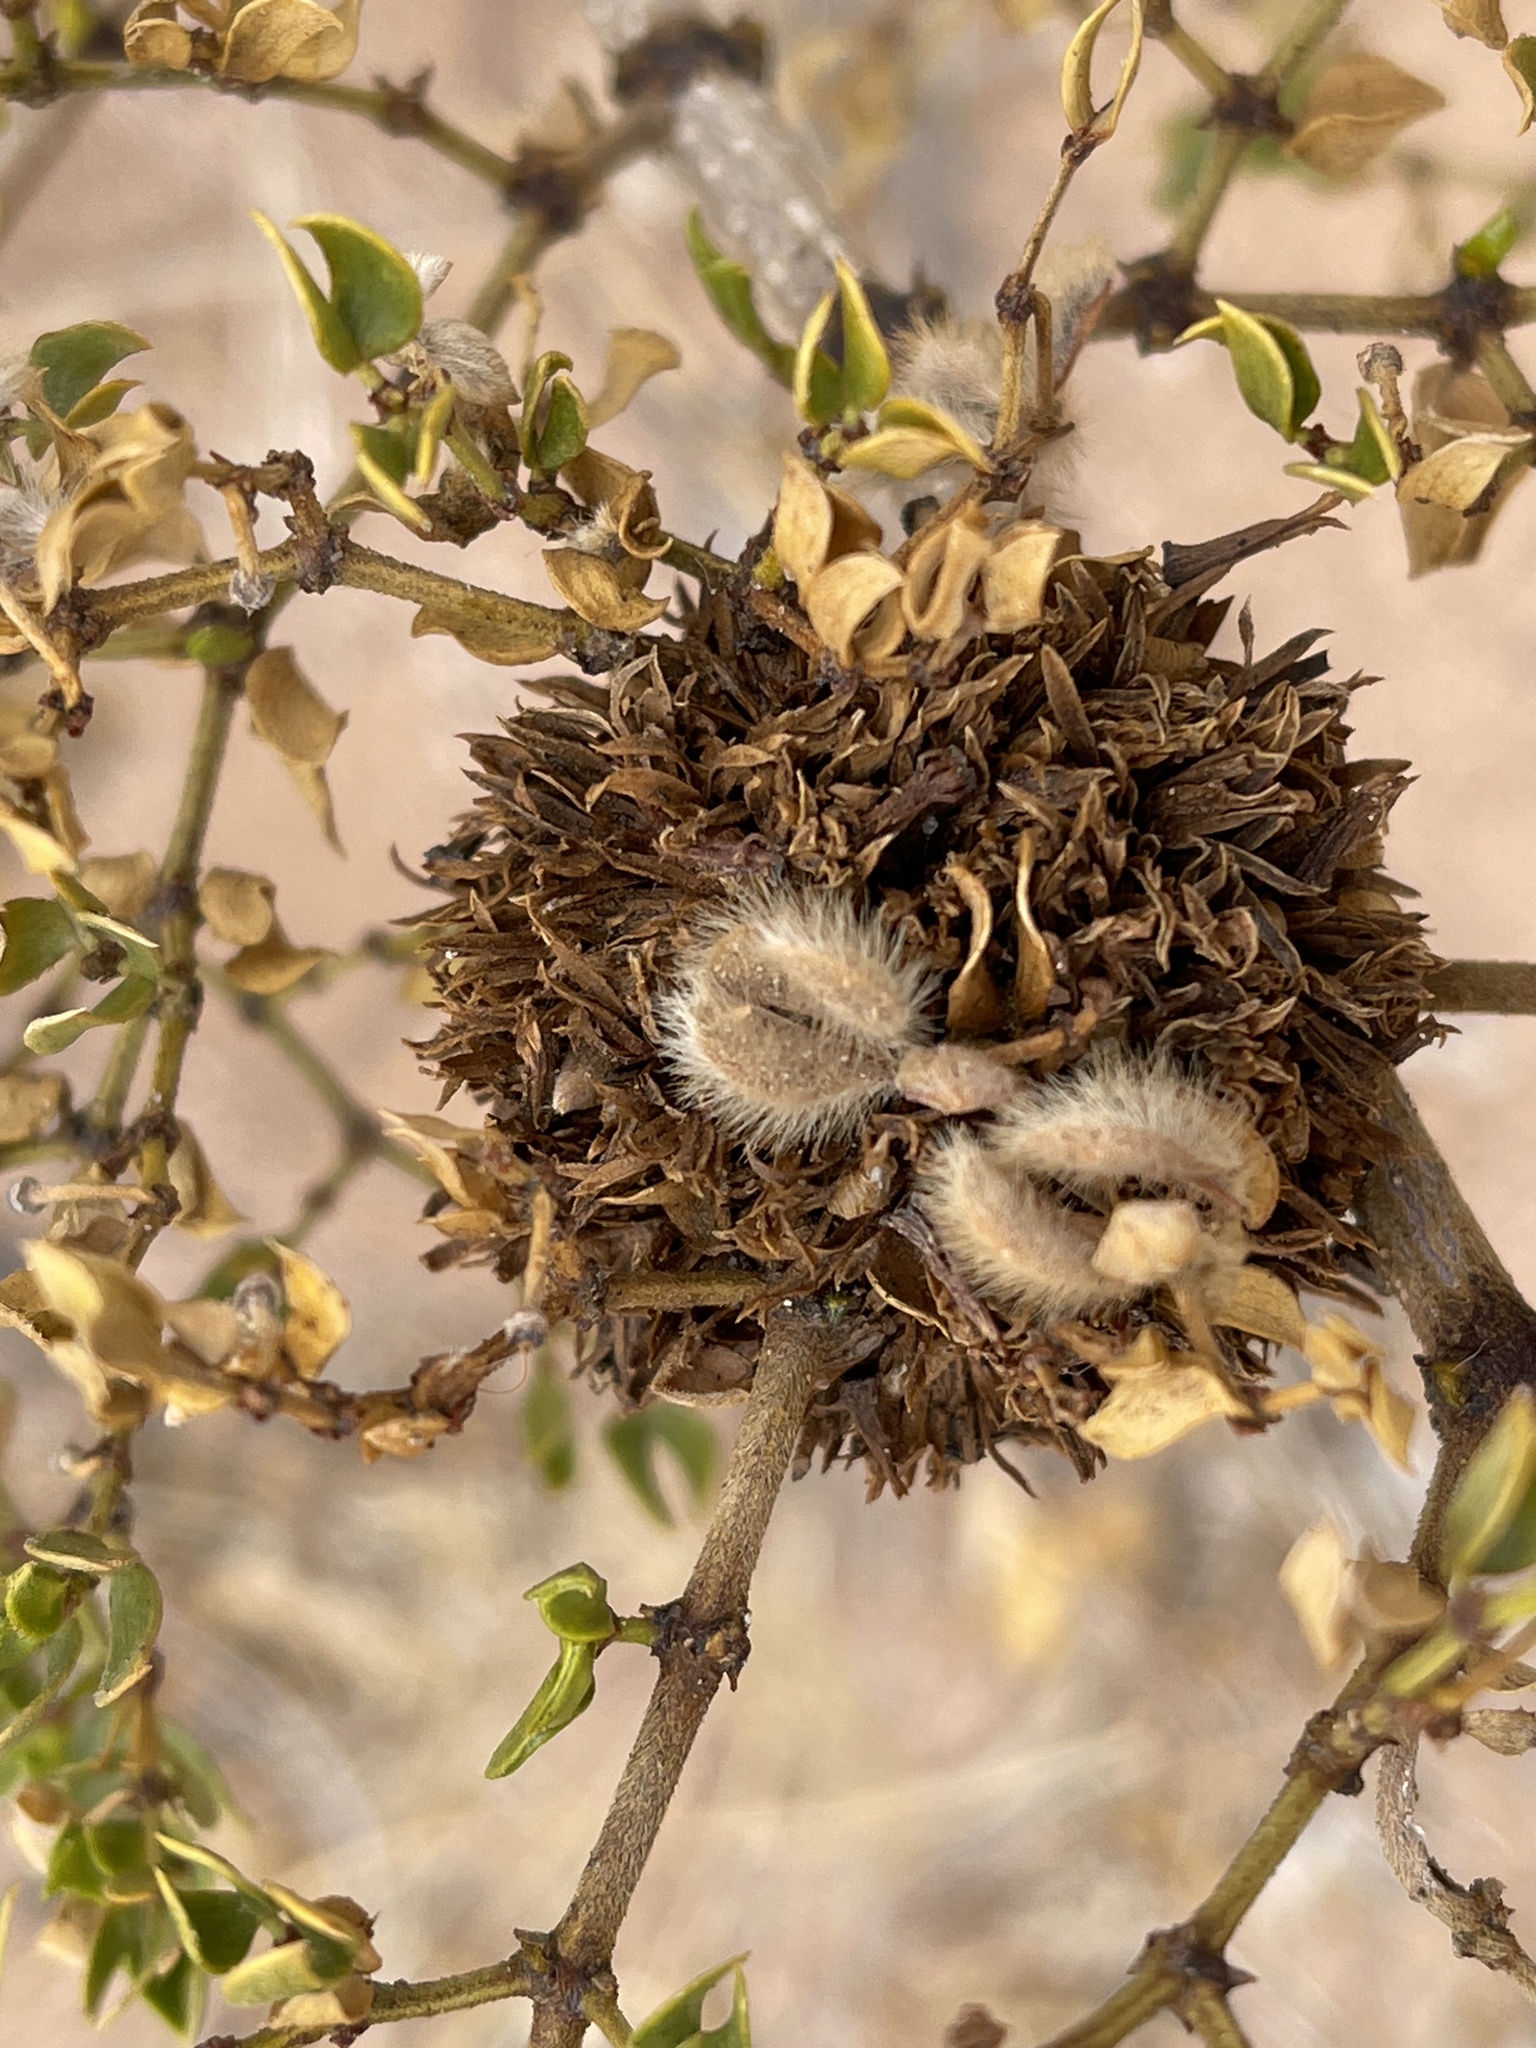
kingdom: Animalia
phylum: Arthropoda
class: Insecta
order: Diptera
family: Cecidomyiidae
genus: Asphondylia
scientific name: Asphondylia auripila
